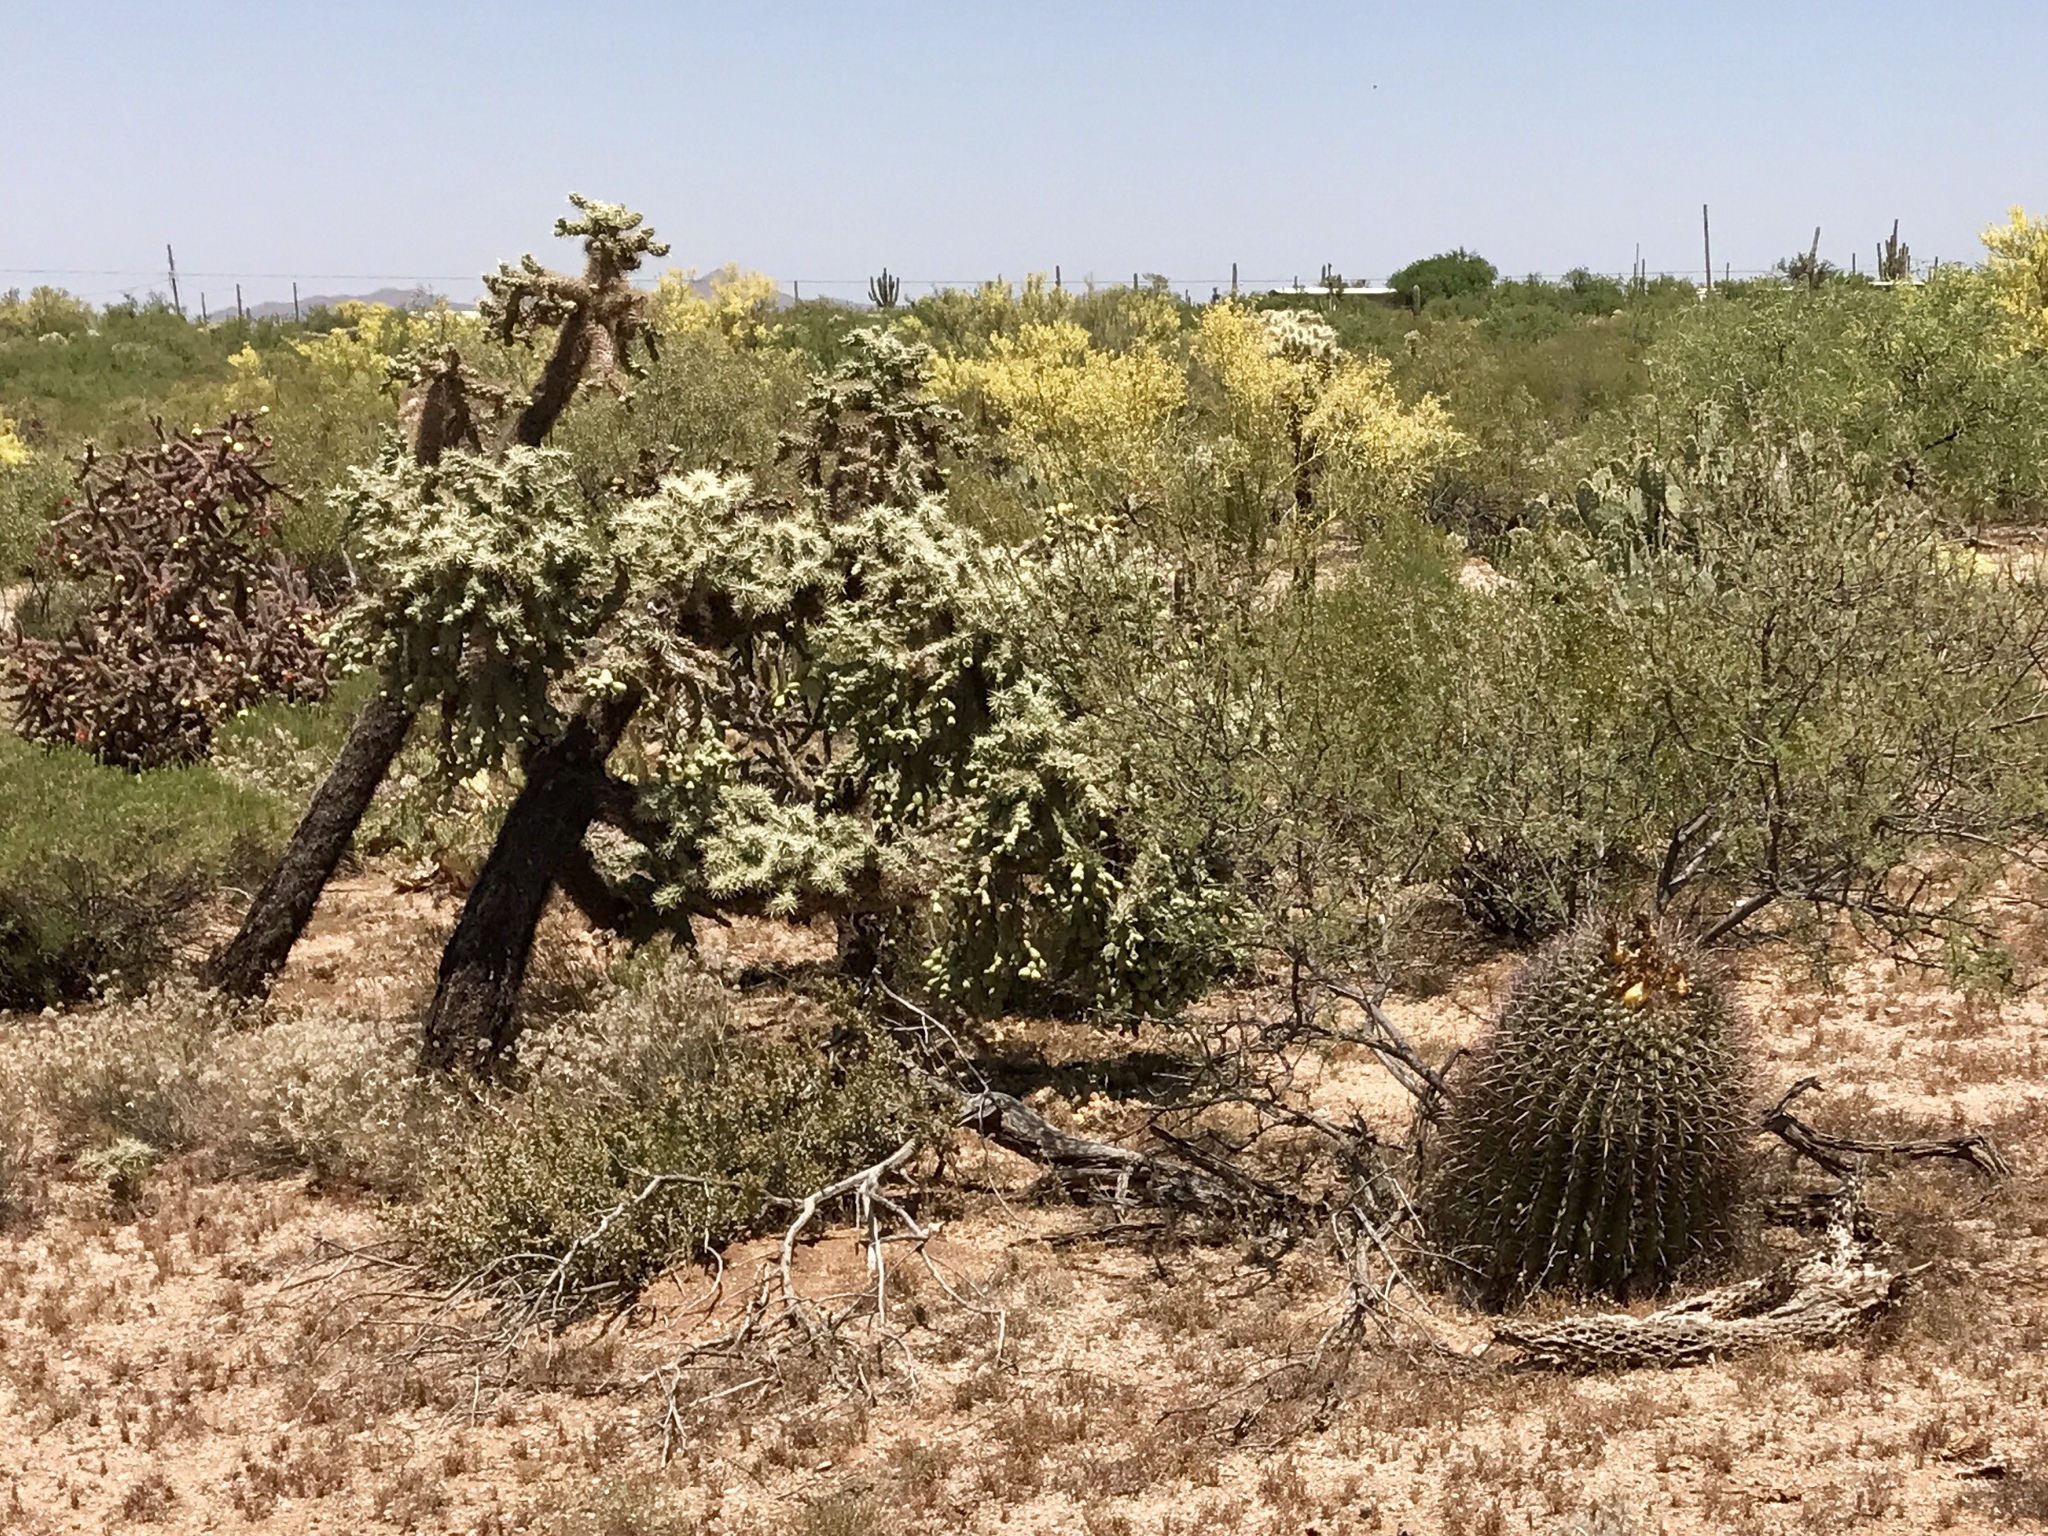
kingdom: Plantae
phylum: Tracheophyta
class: Magnoliopsida
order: Caryophyllales
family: Cactaceae
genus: Ferocactus
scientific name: Ferocactus wislizeni
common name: Candy barrel cactus
